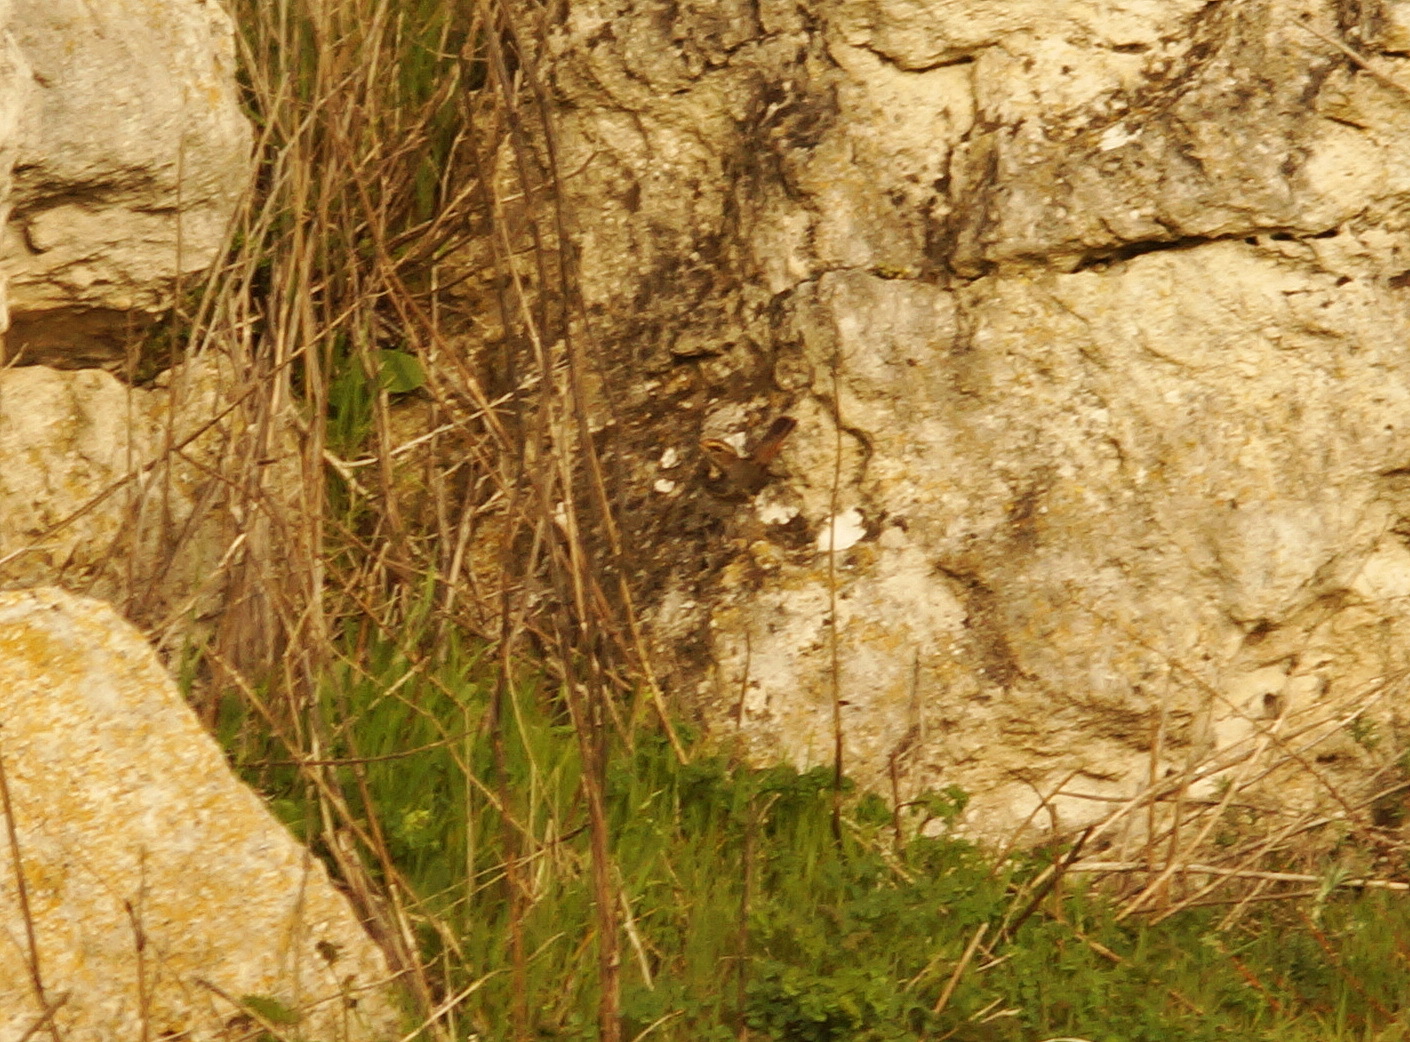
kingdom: Animalia
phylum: Chordata
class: Aves
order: Passeriformes
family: Muscicapidae
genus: Luscinia
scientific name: Luscinia svecica
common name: Bluethroat
